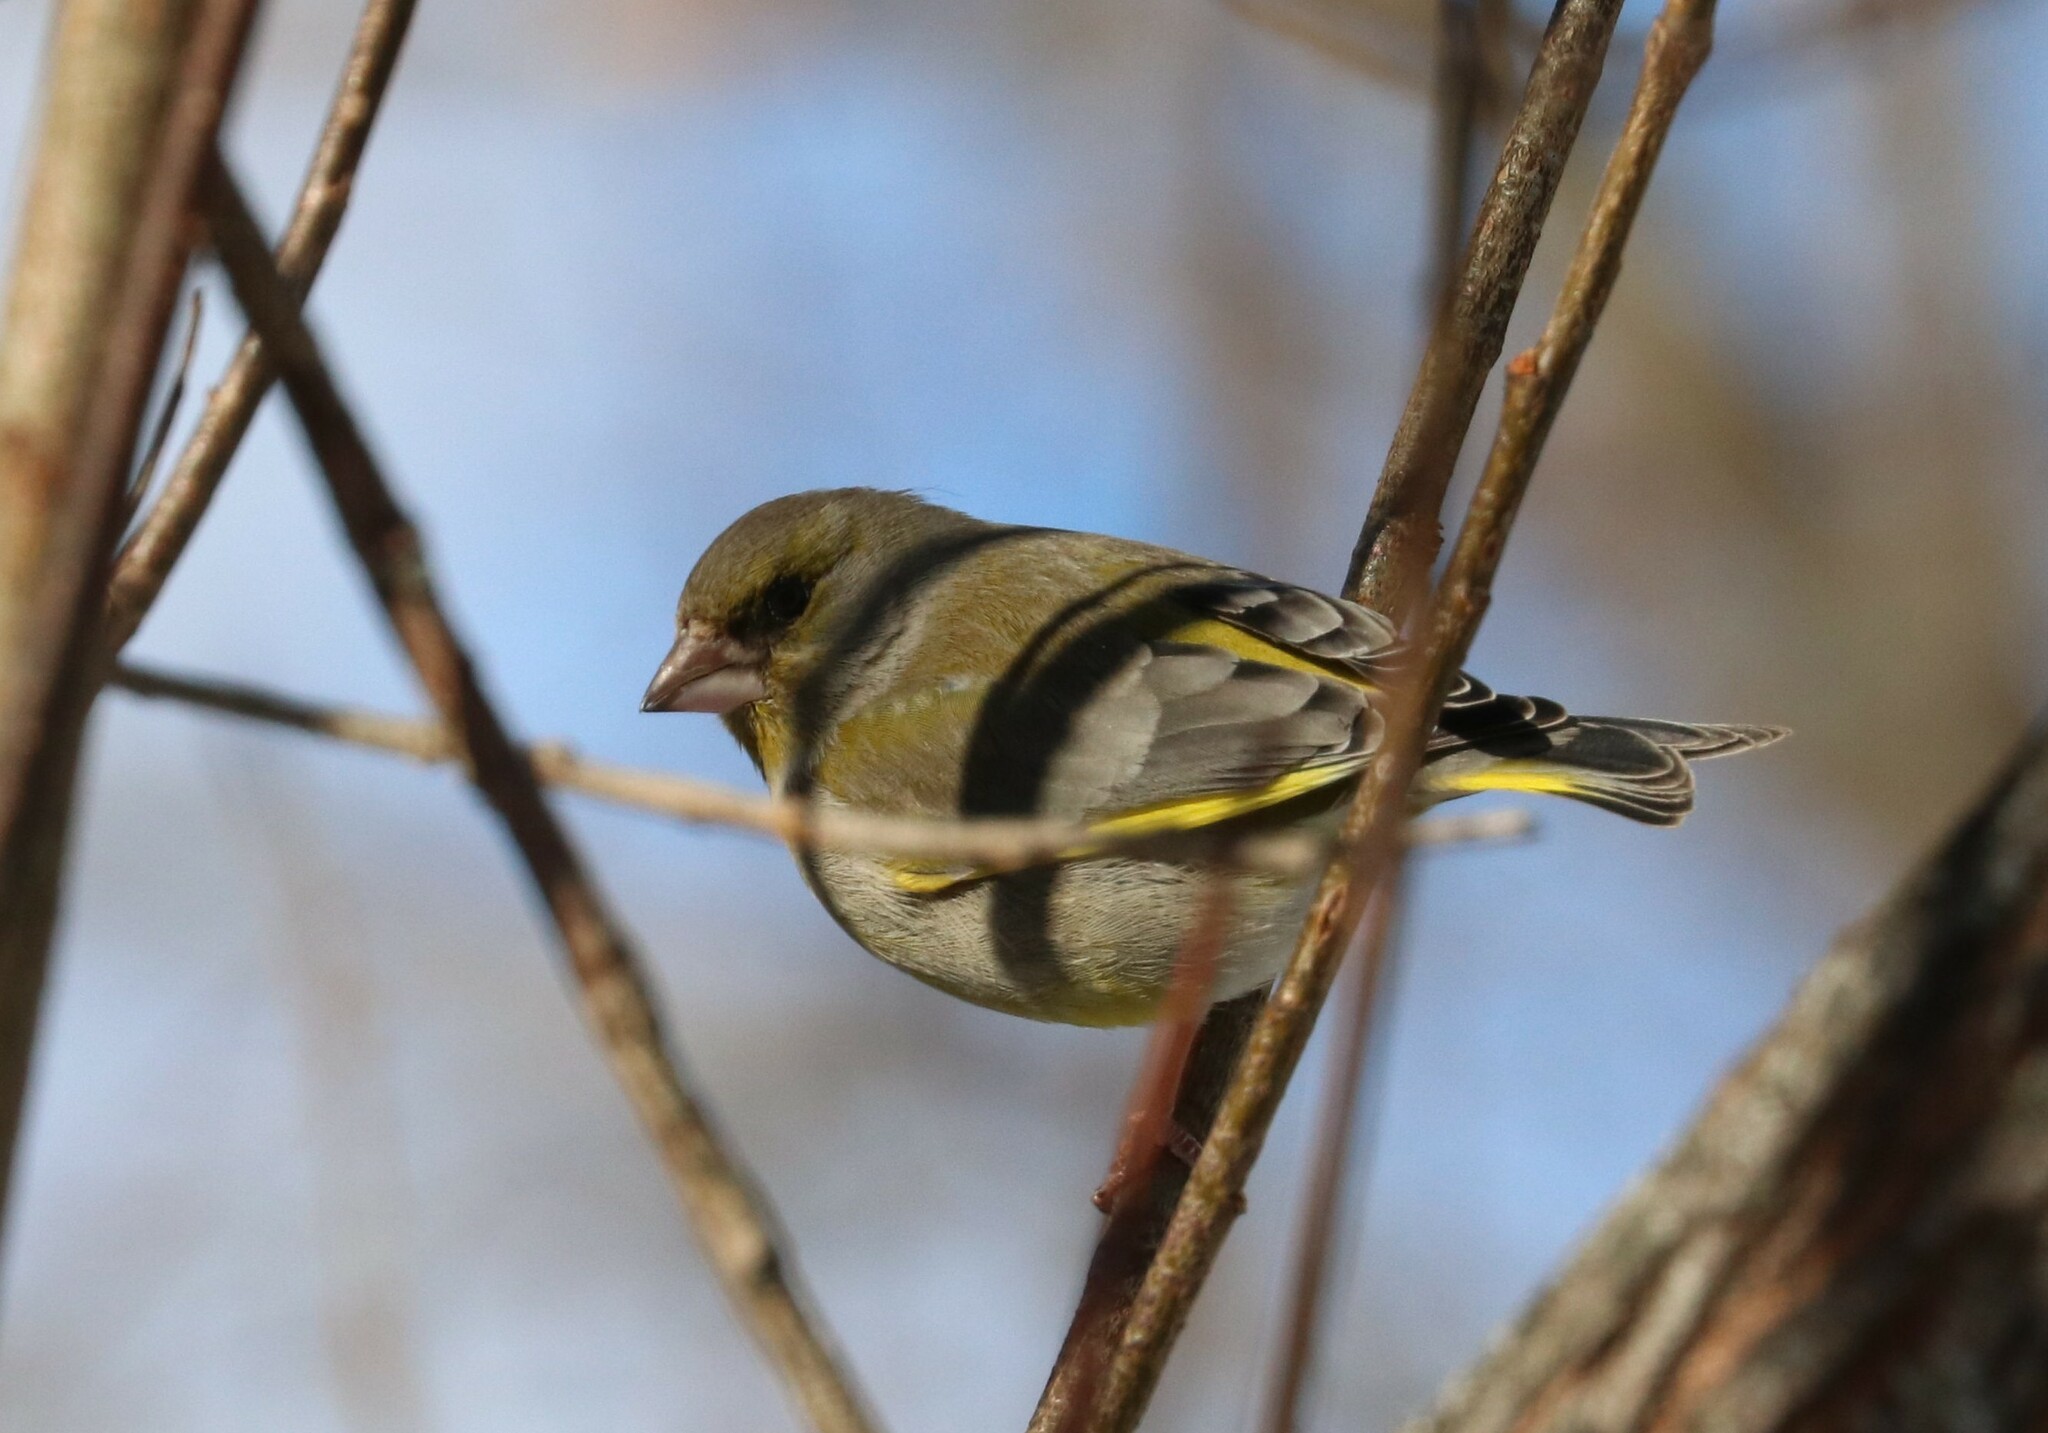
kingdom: Plantae
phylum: Tracheophyta
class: Liliopsida
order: Poales
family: Poaceae
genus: Chloris
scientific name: Chloris chloris
